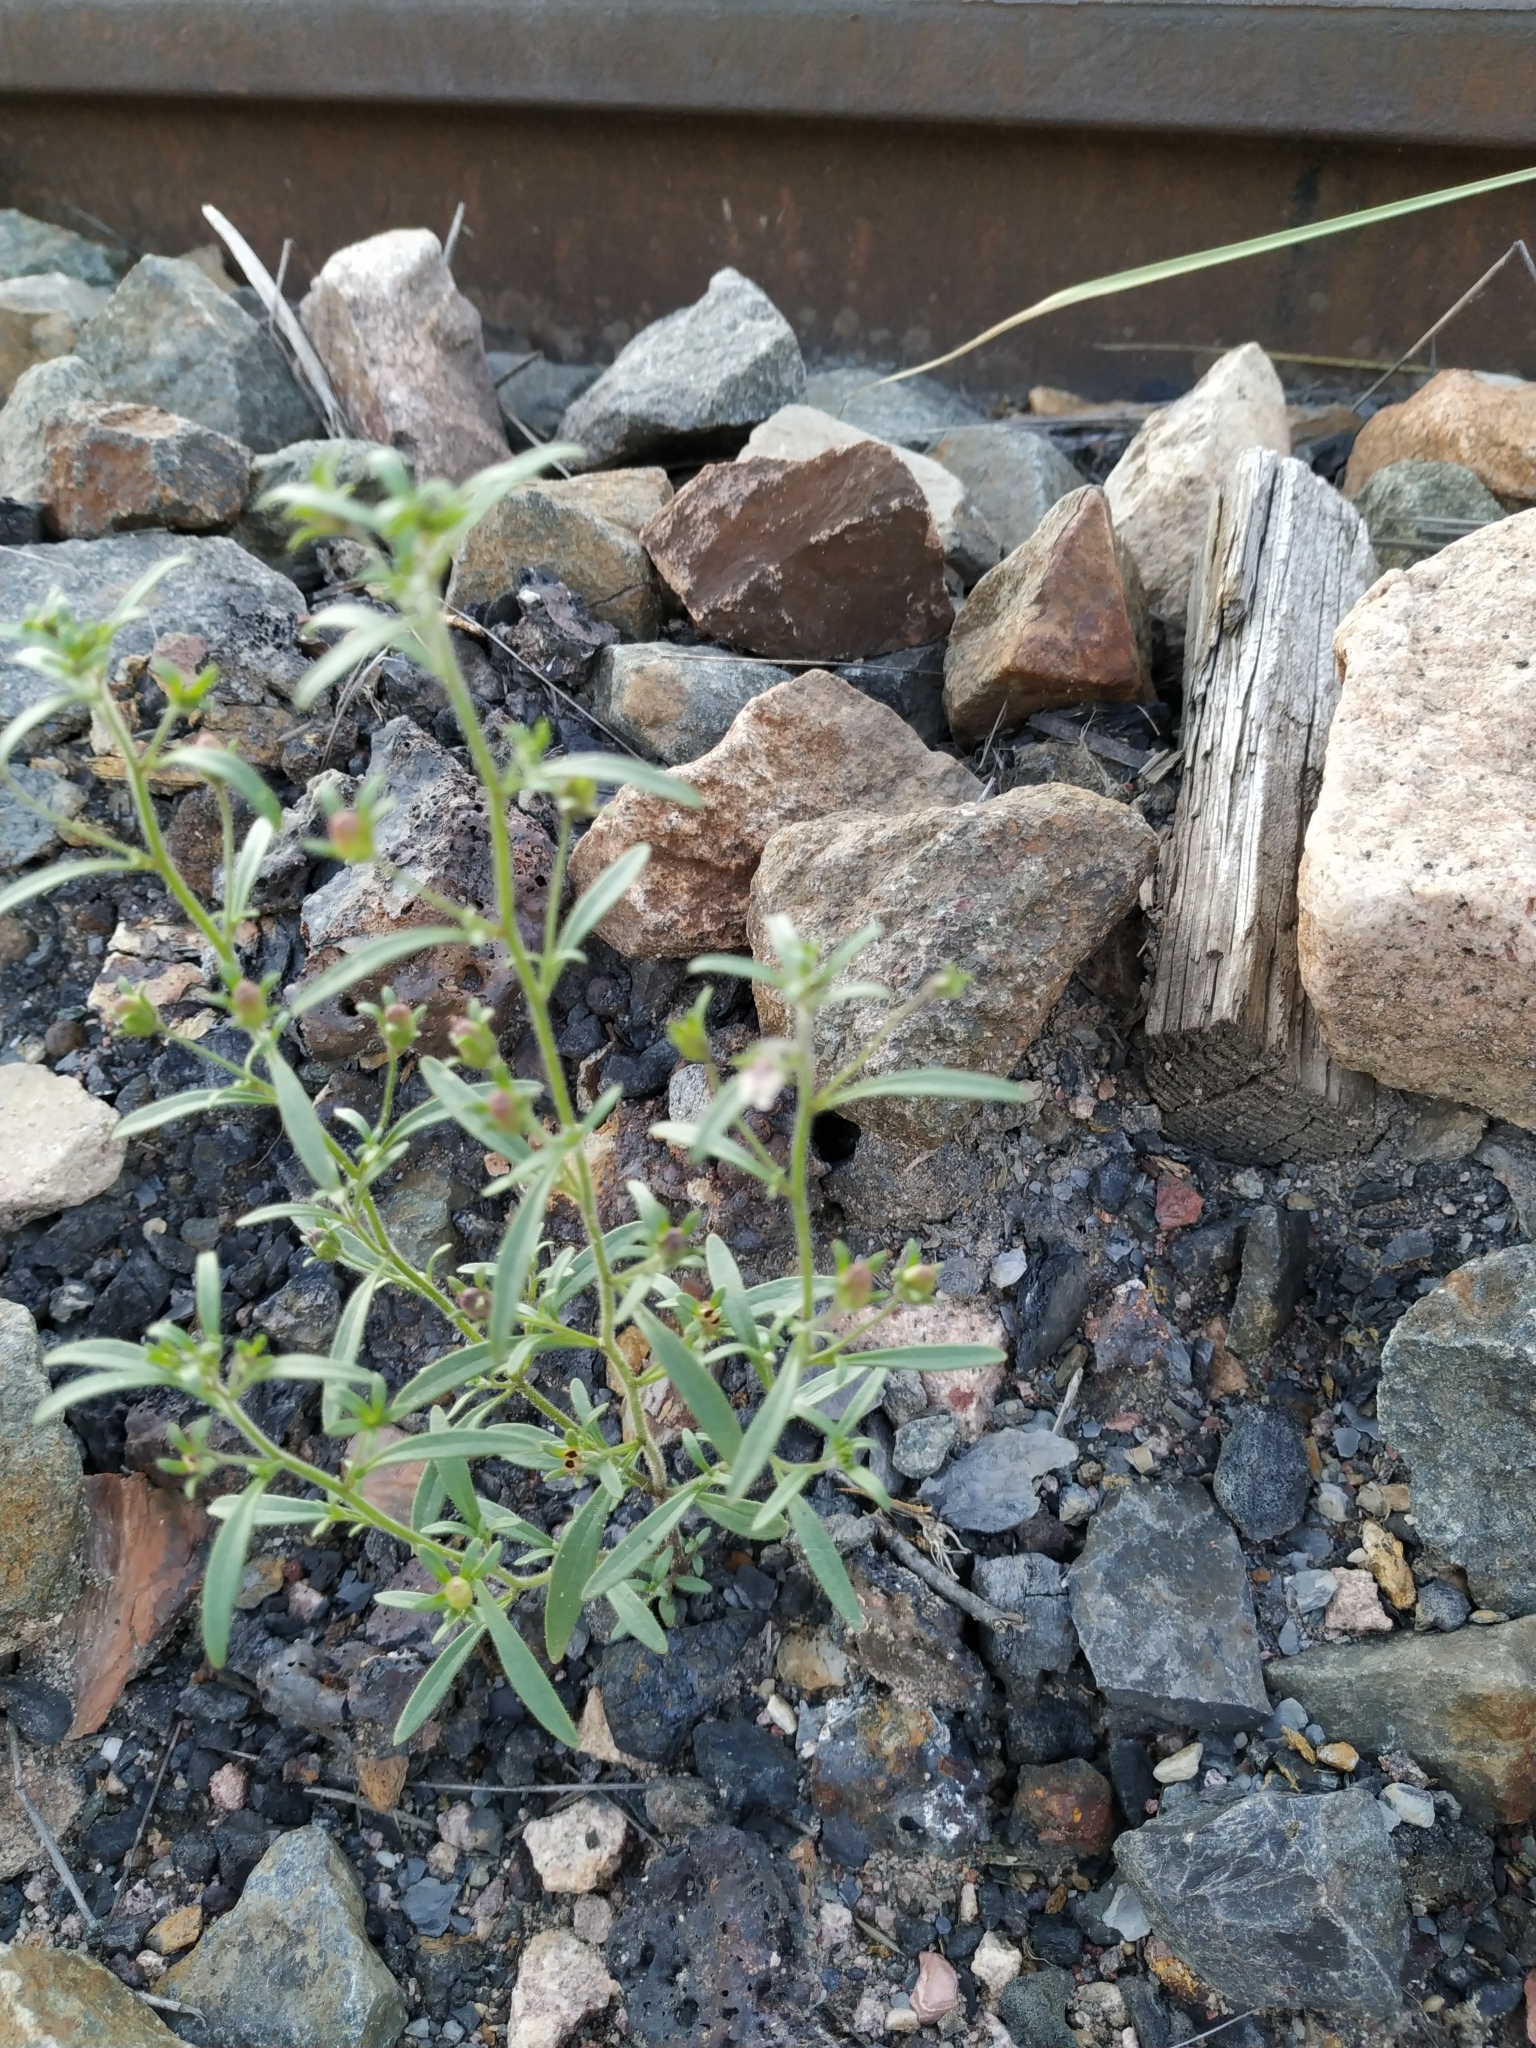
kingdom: Plantae
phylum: Tracheophyta
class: Magnoliopsida
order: Lamiales
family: Plantaginaceae
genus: Chaenorhinum
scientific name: Chaenorhinum minus
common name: Dwarf snapdragon
